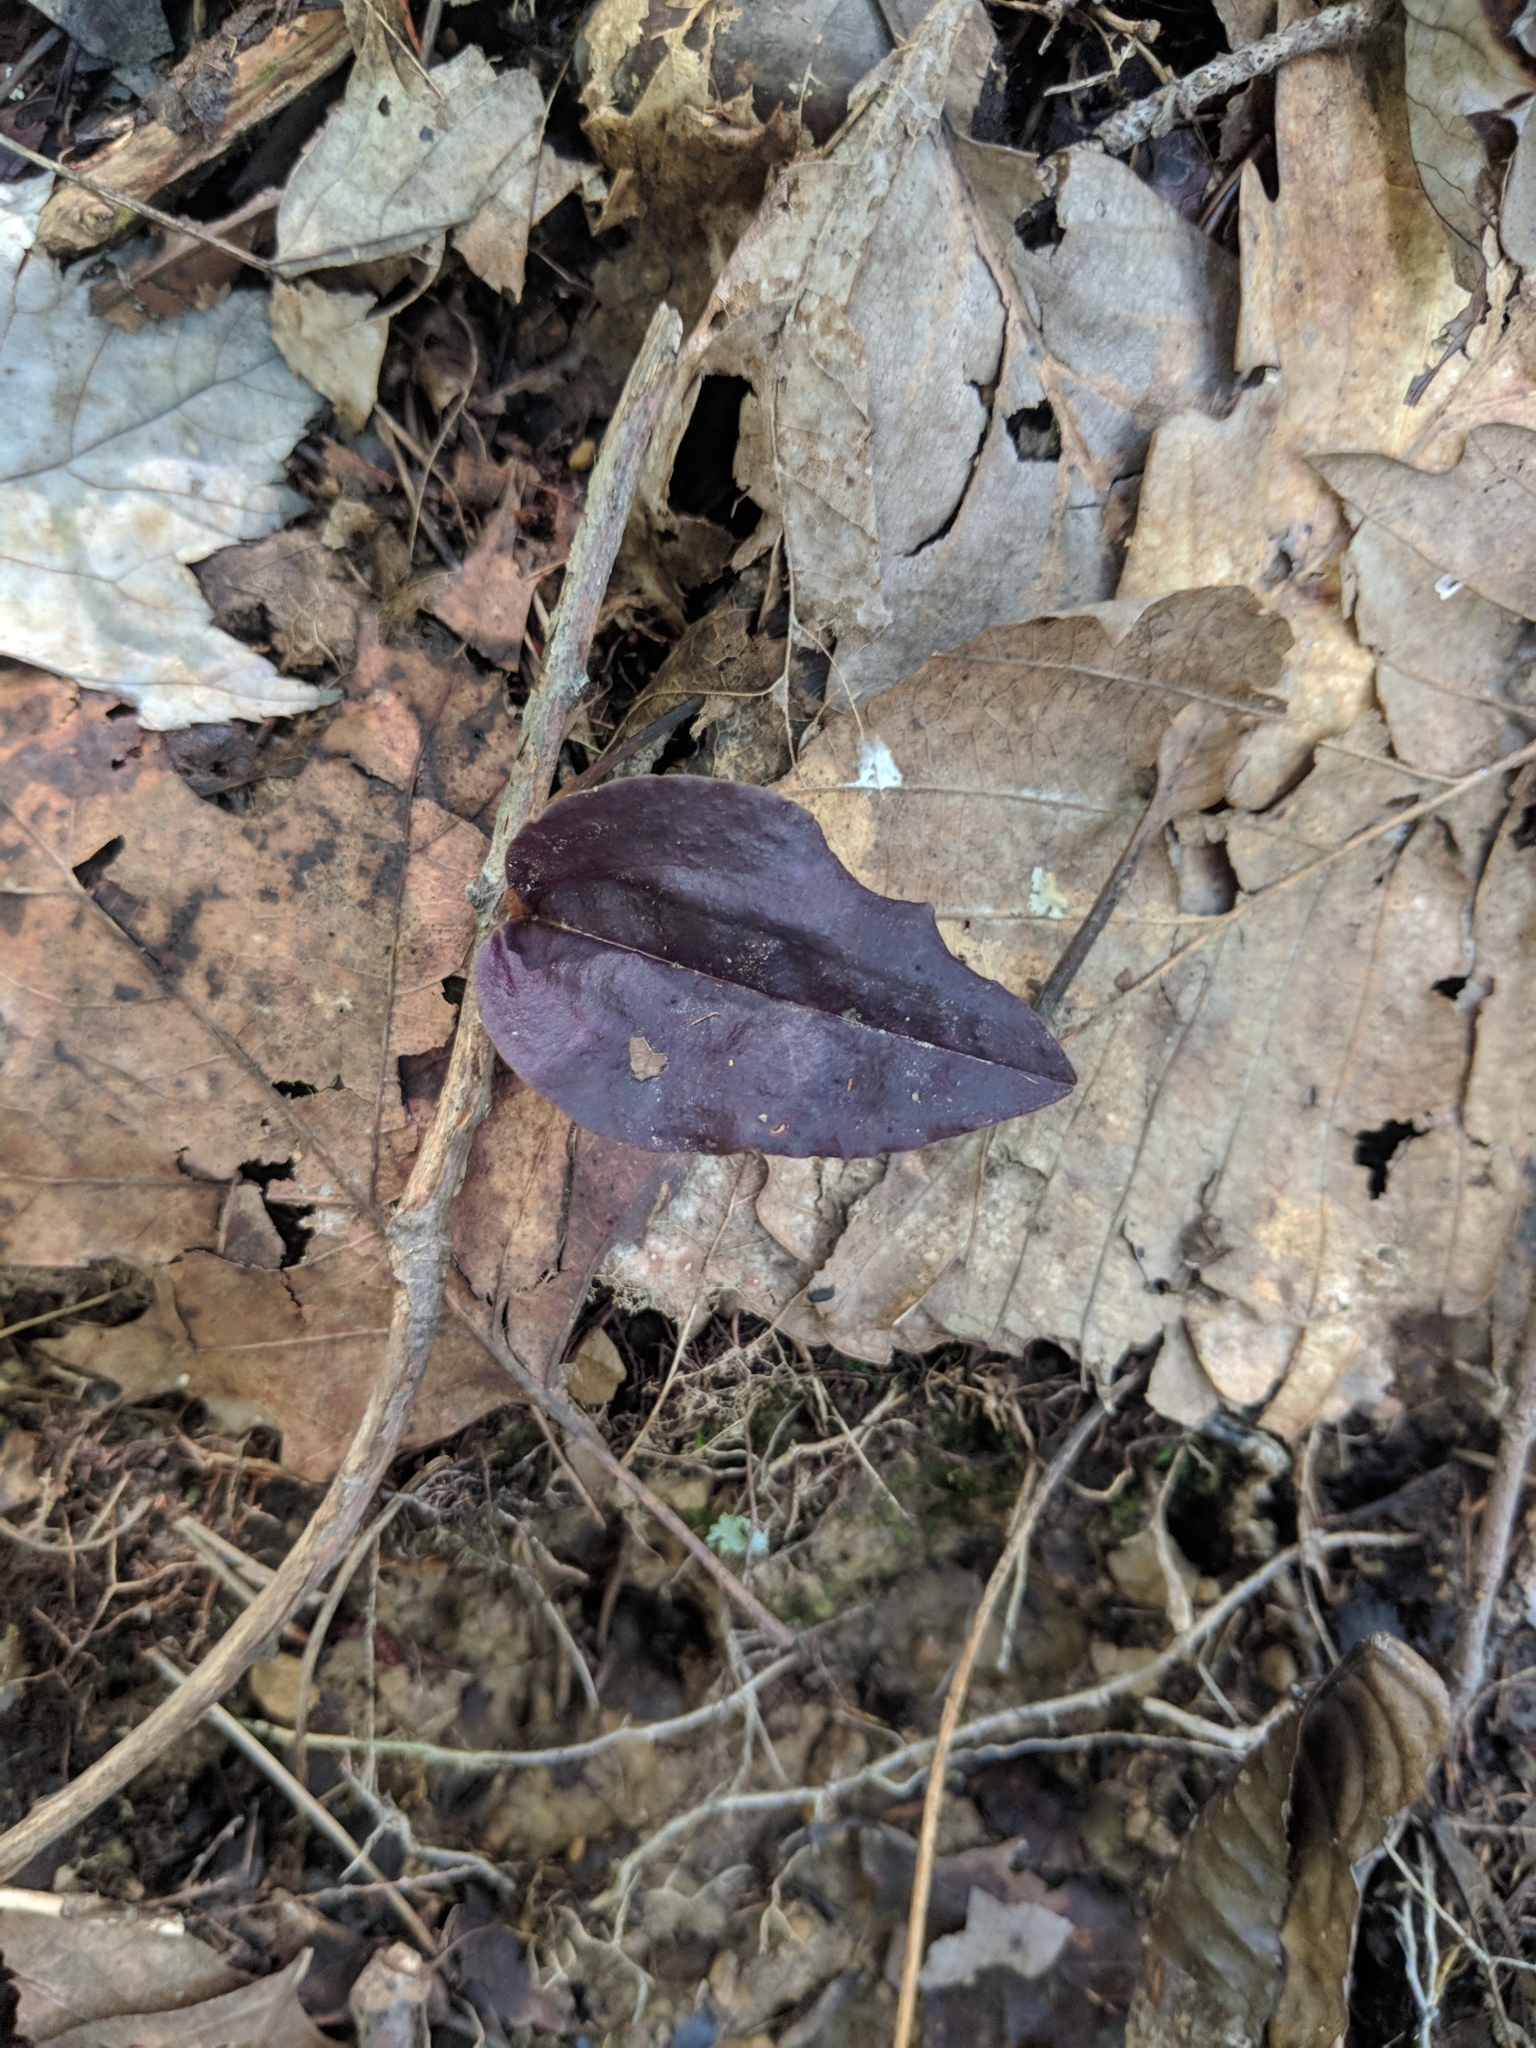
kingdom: Plantae
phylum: Tracheophyta
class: Liliopsida
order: Asparagales
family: Orchidaceae
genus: Tipularia
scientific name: Tipularia discolor
